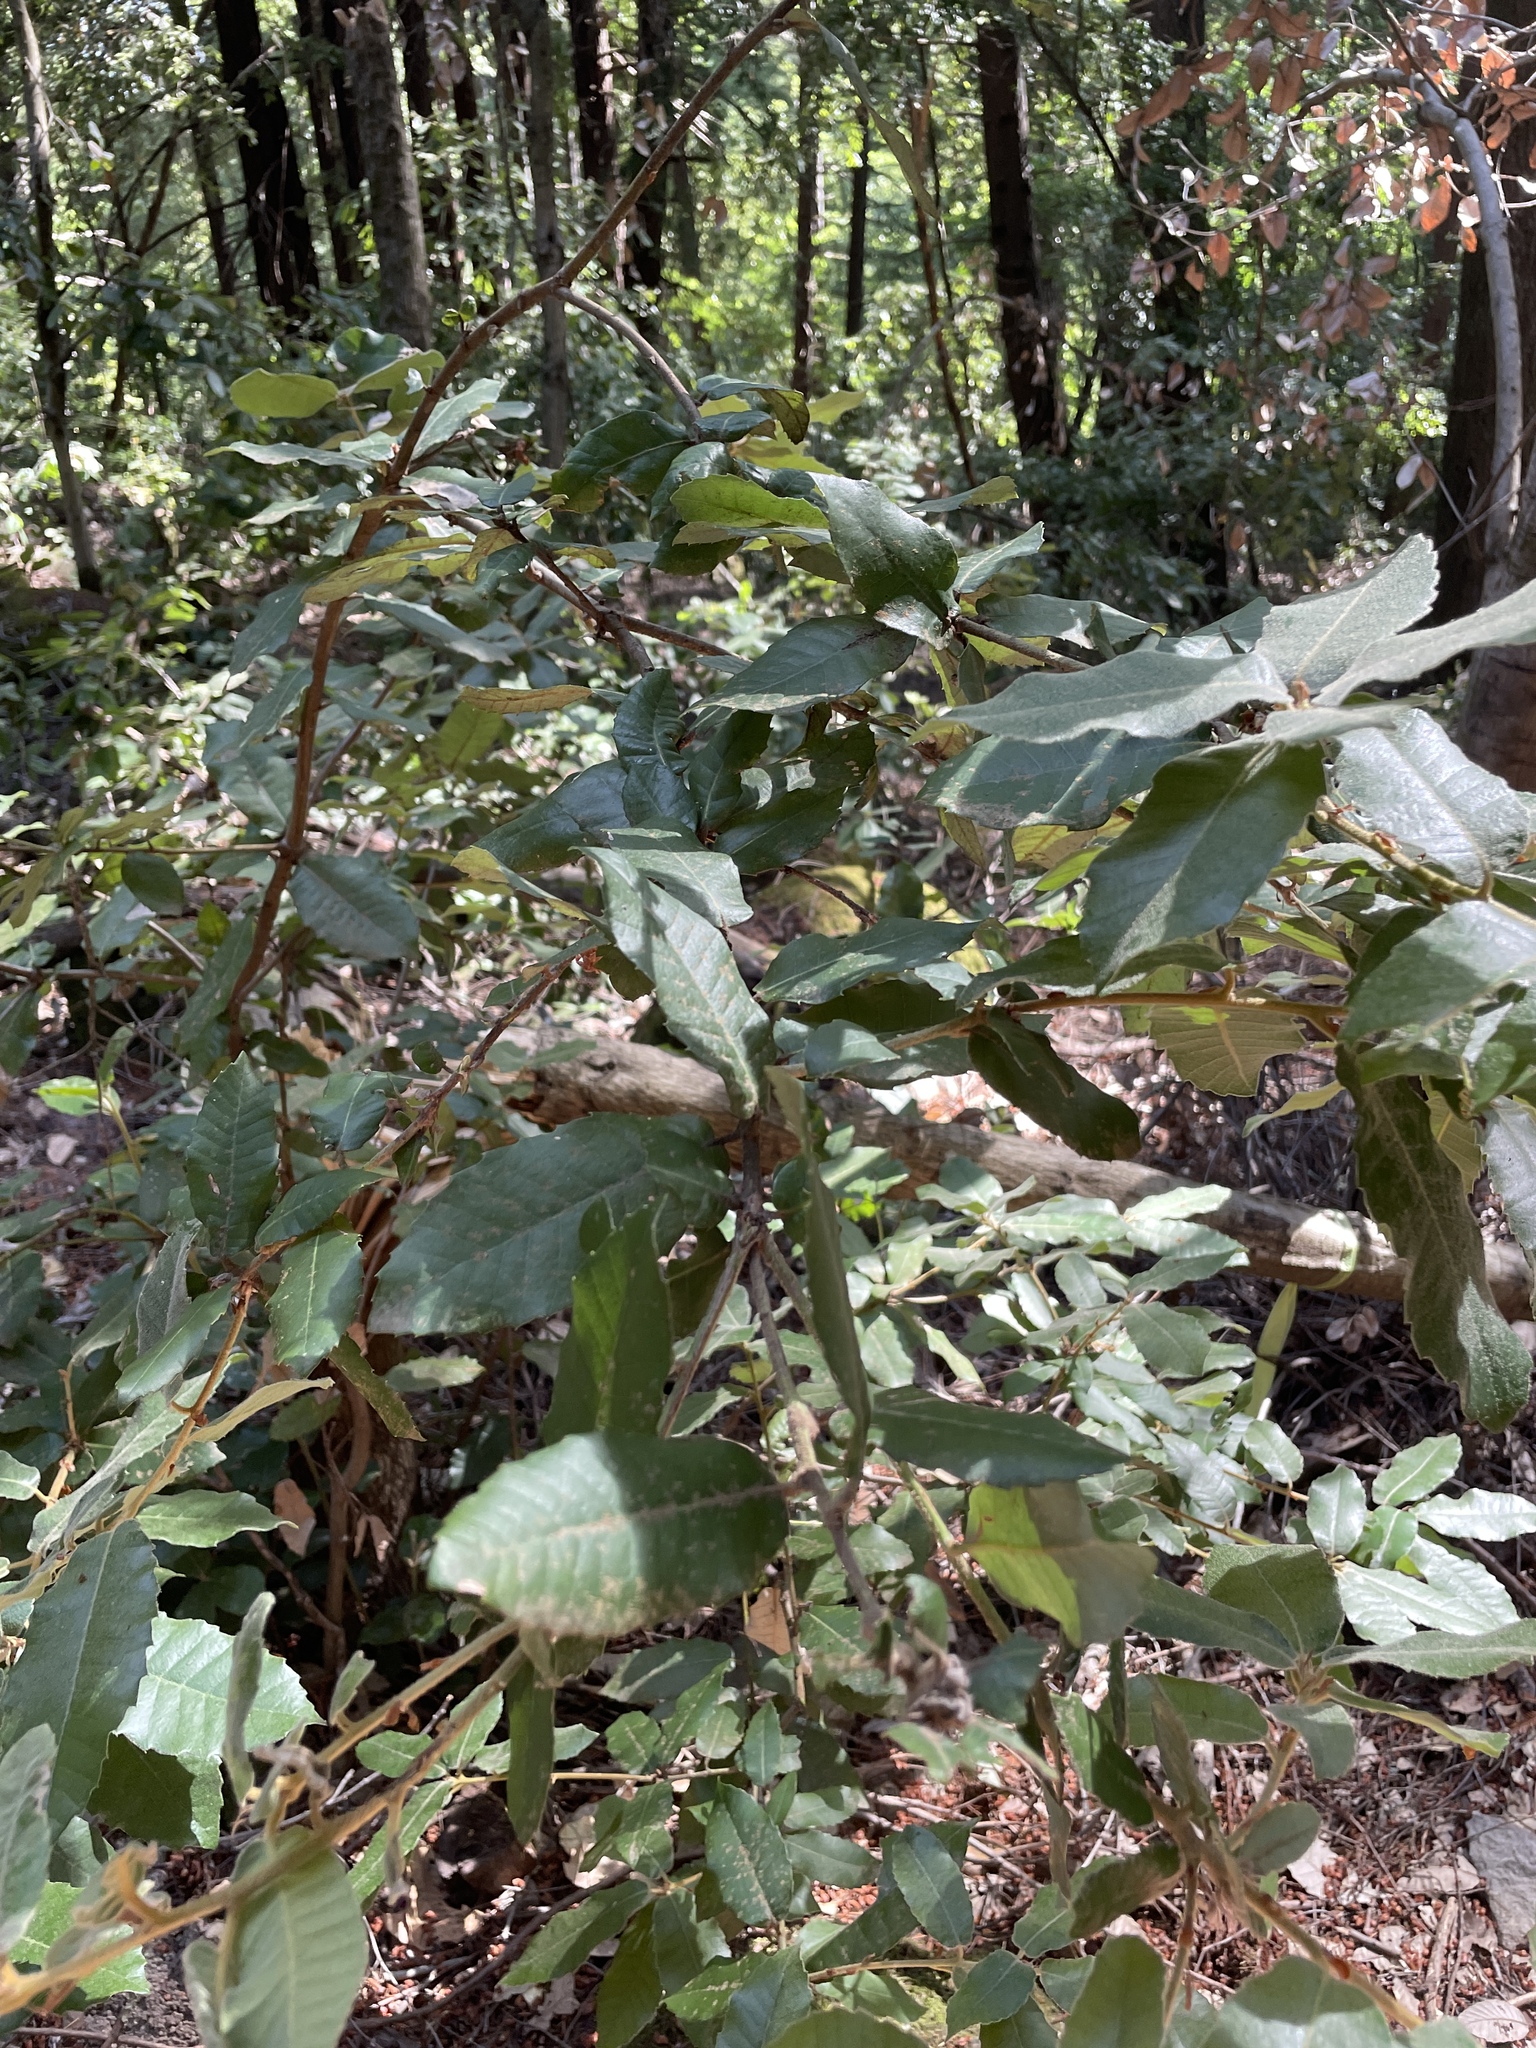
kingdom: Plantae
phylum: Tracheophyta
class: Magnoliopsida
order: Fagales
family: Fagaceae
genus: Notholithocarpus
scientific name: Notholithocarpus densiflorus
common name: Tan bark oak
